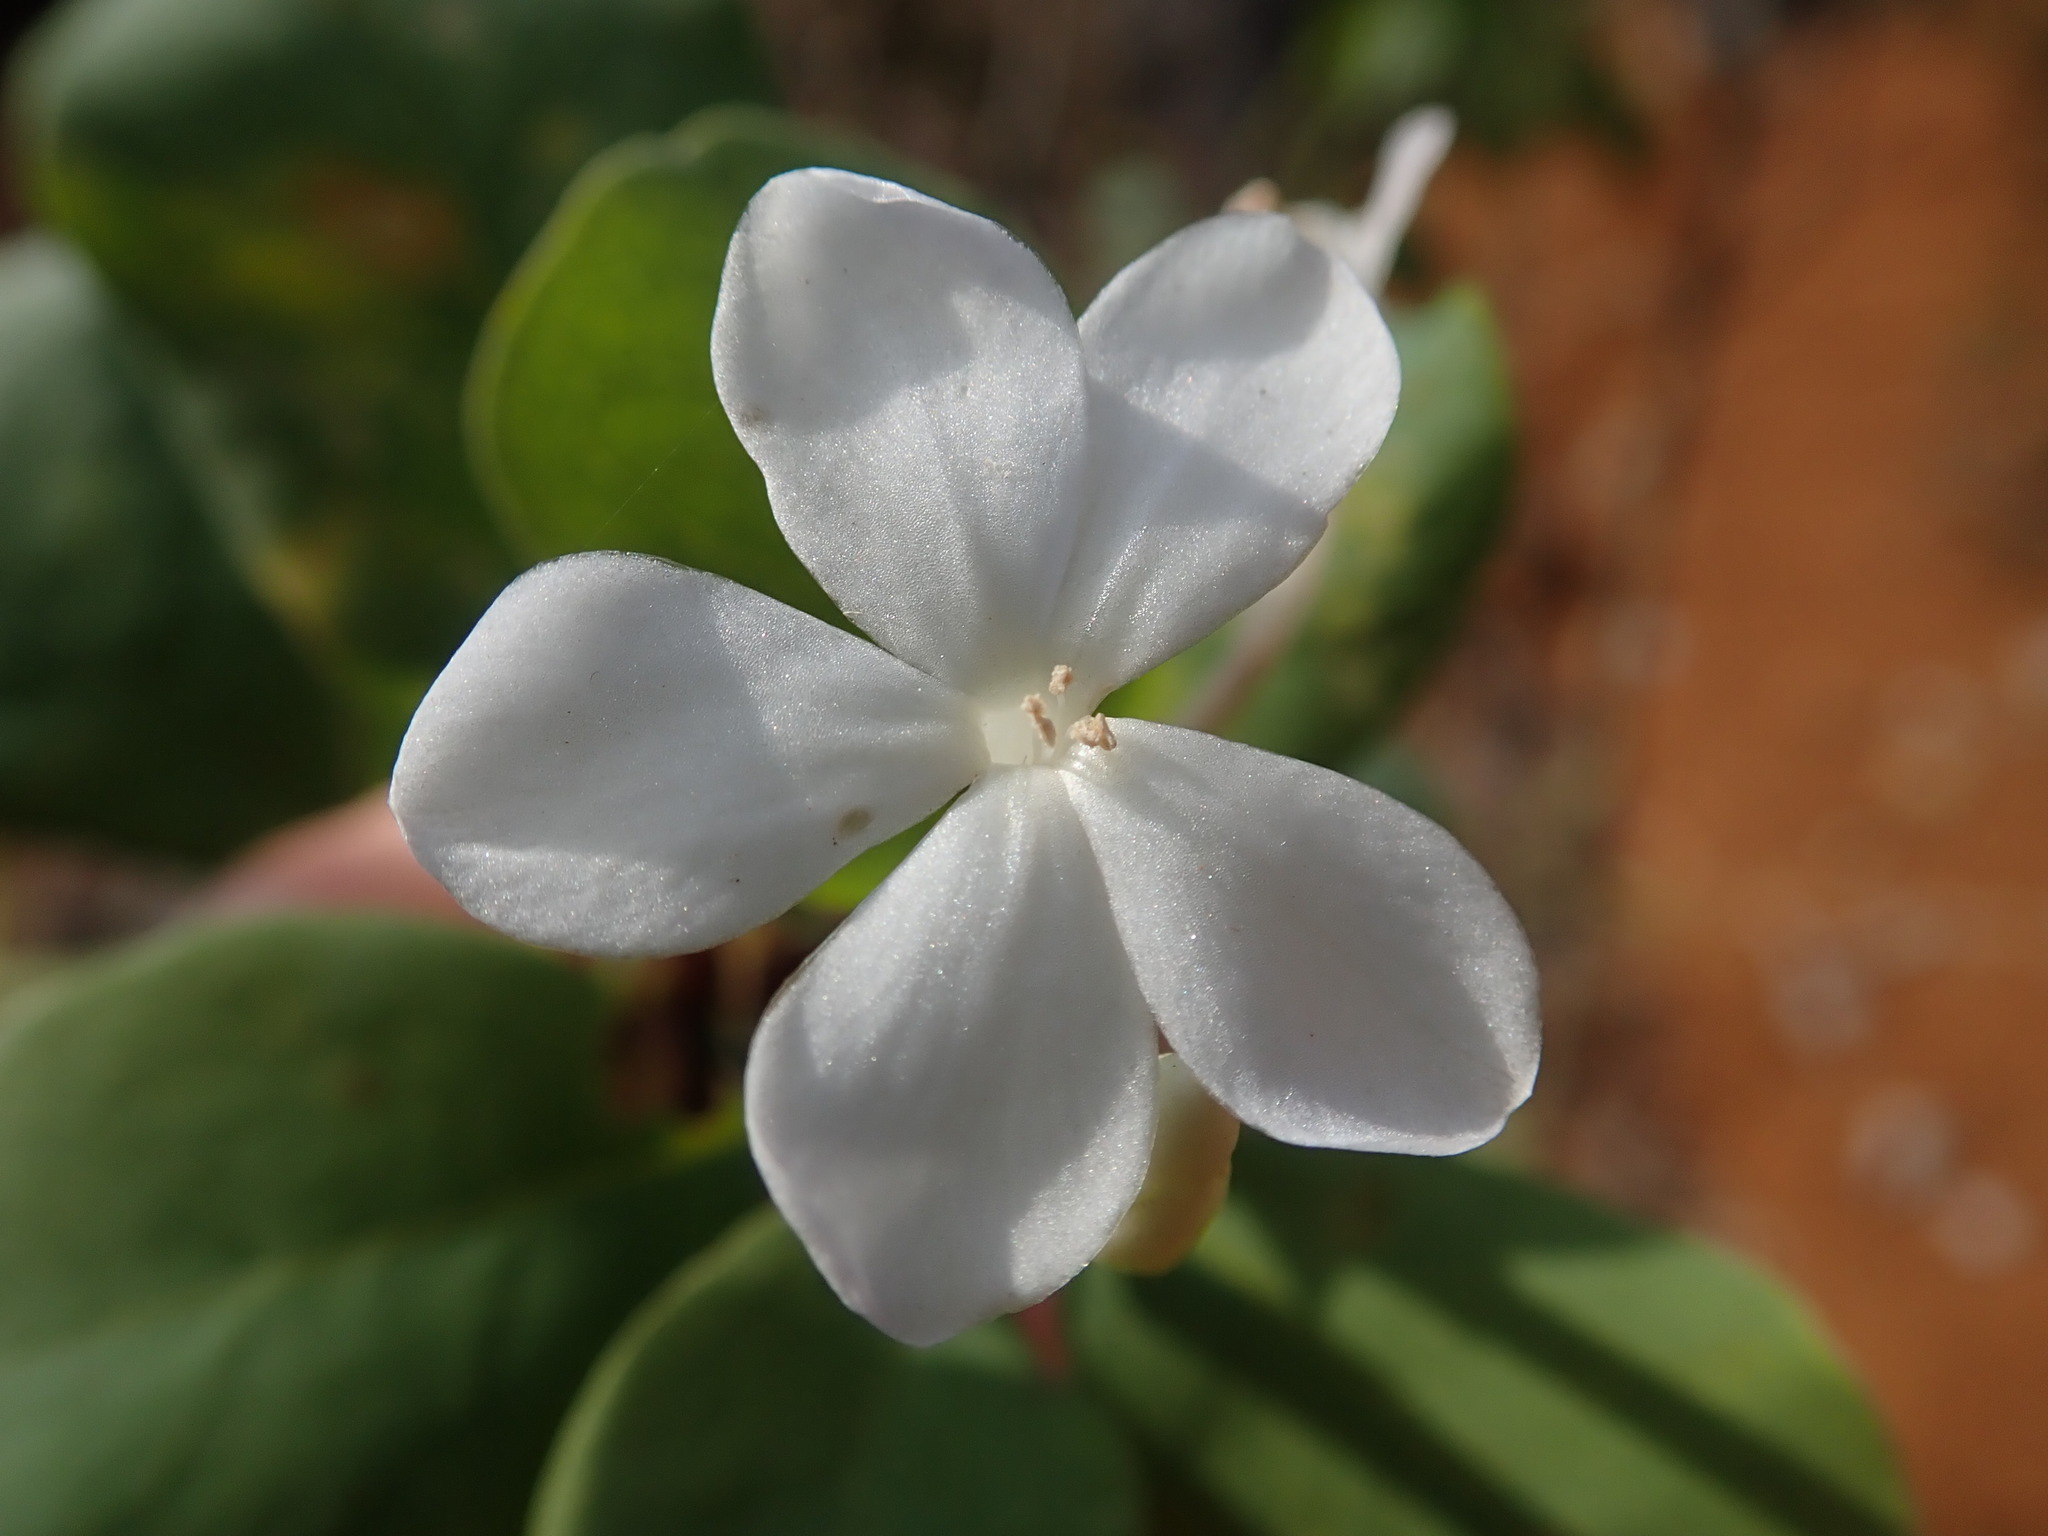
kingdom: Plantae
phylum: Tracheophyta
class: Magnoliopsida
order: Malpighiales
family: Linaceae
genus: Tirpitzia
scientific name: Tirpitzia sinensis
